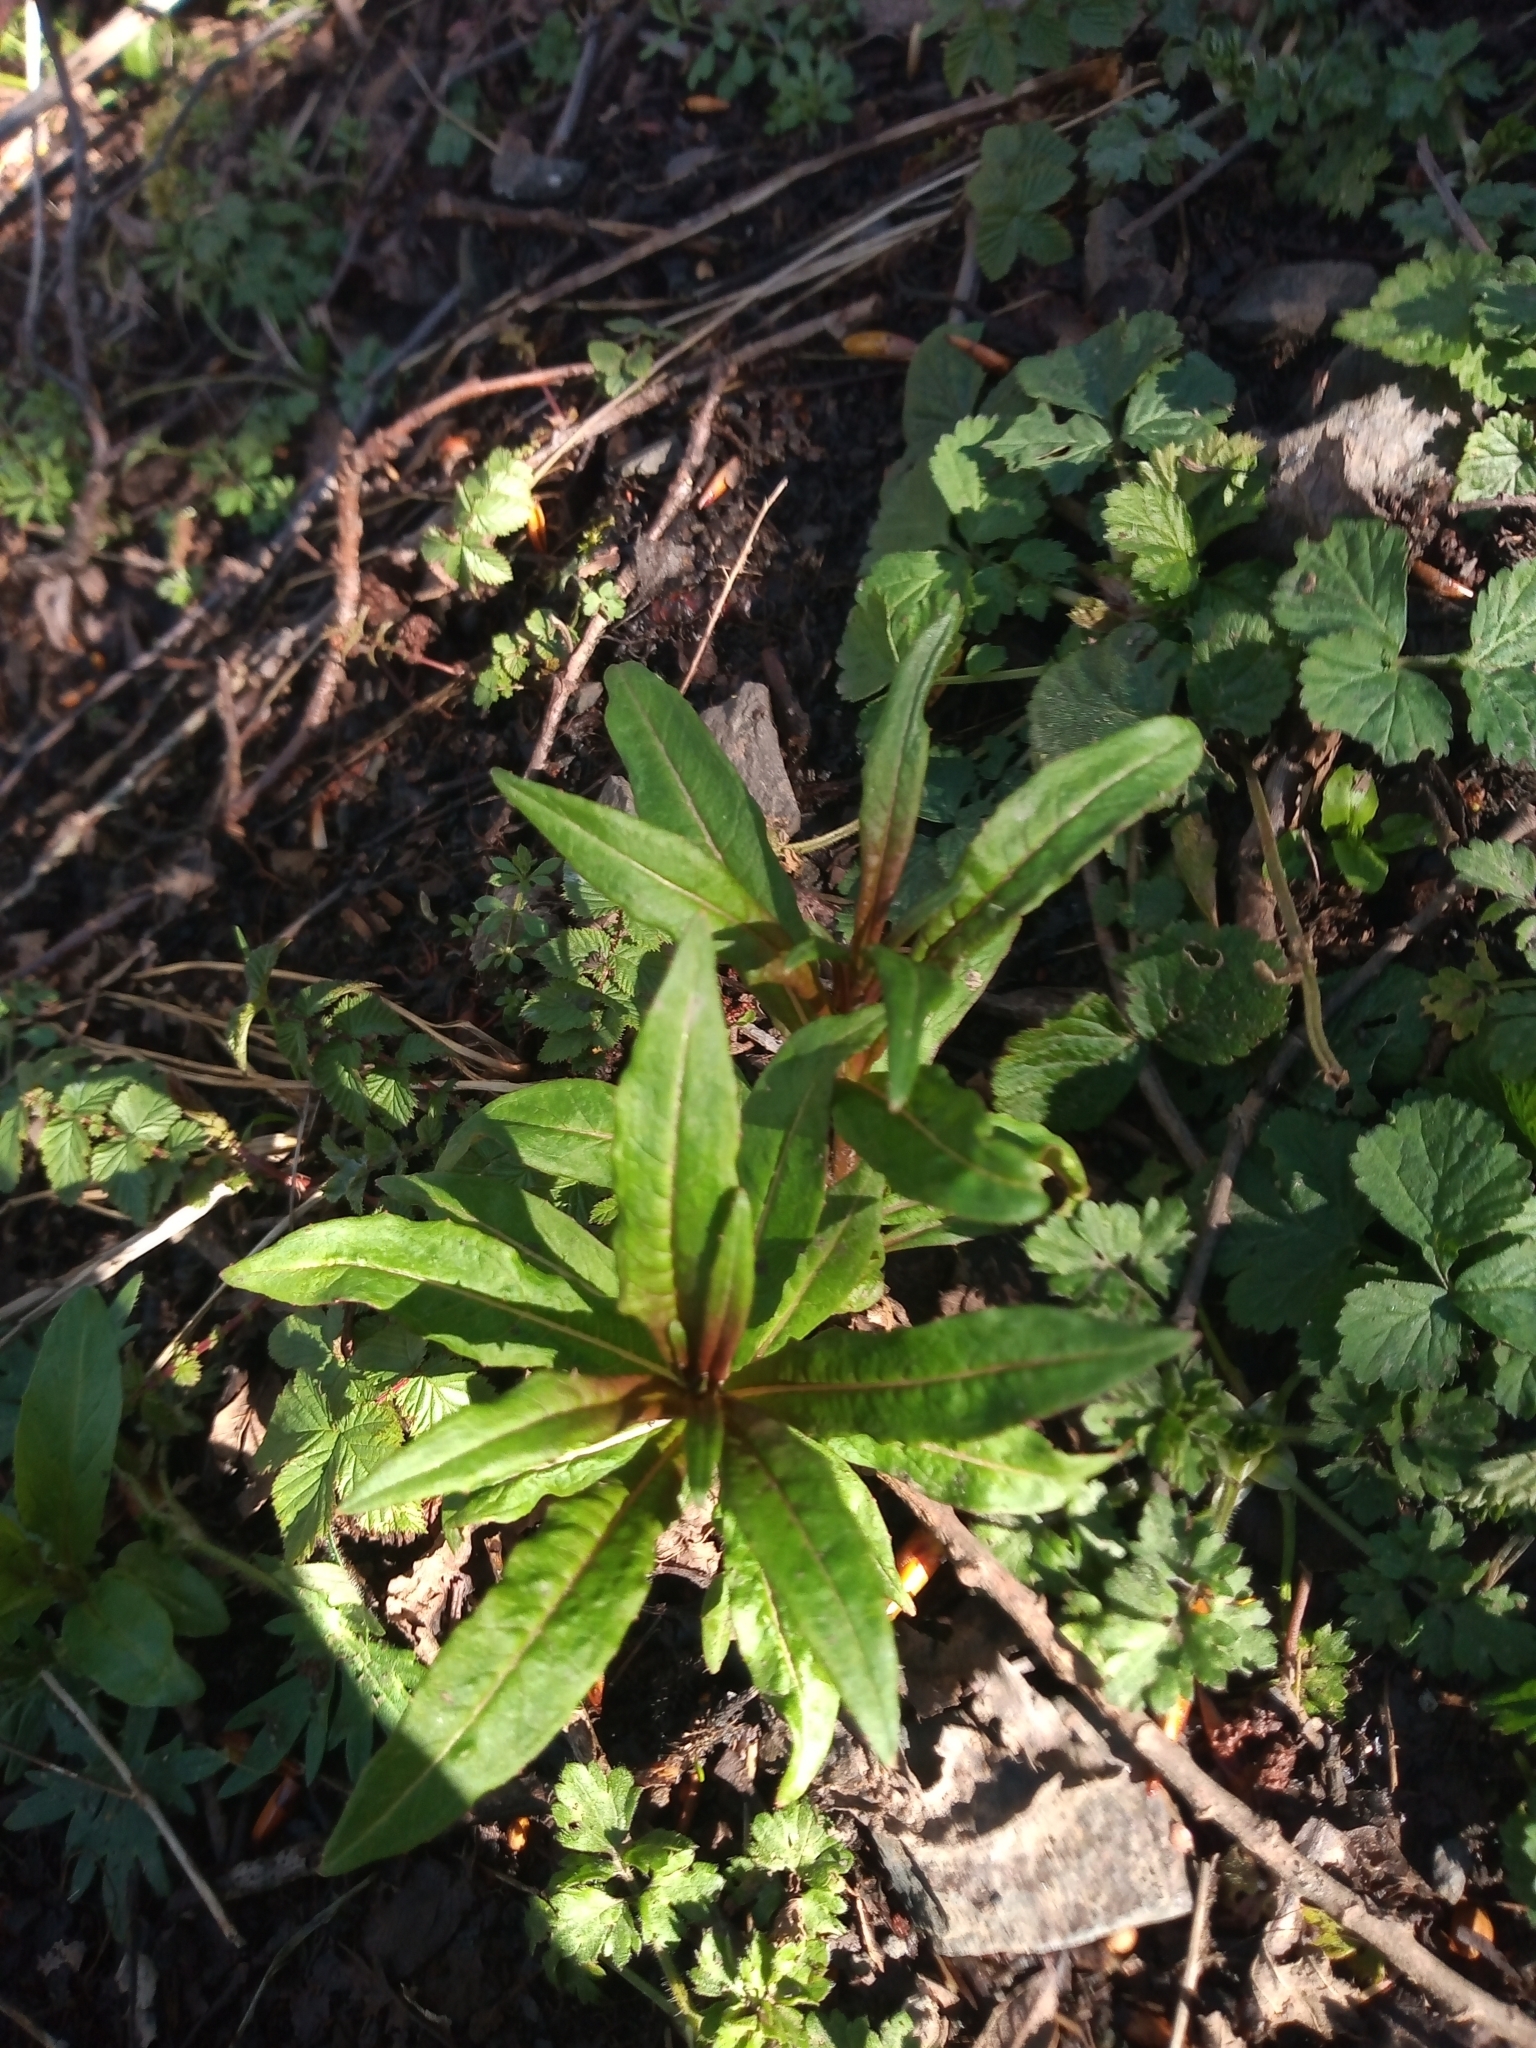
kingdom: Plantae
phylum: Tracheophyta
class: Magnoliopsida
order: Myrtales
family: Onagraceae
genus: Chamaenerion
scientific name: Chamaenerion angustifolium
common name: Fireweed
